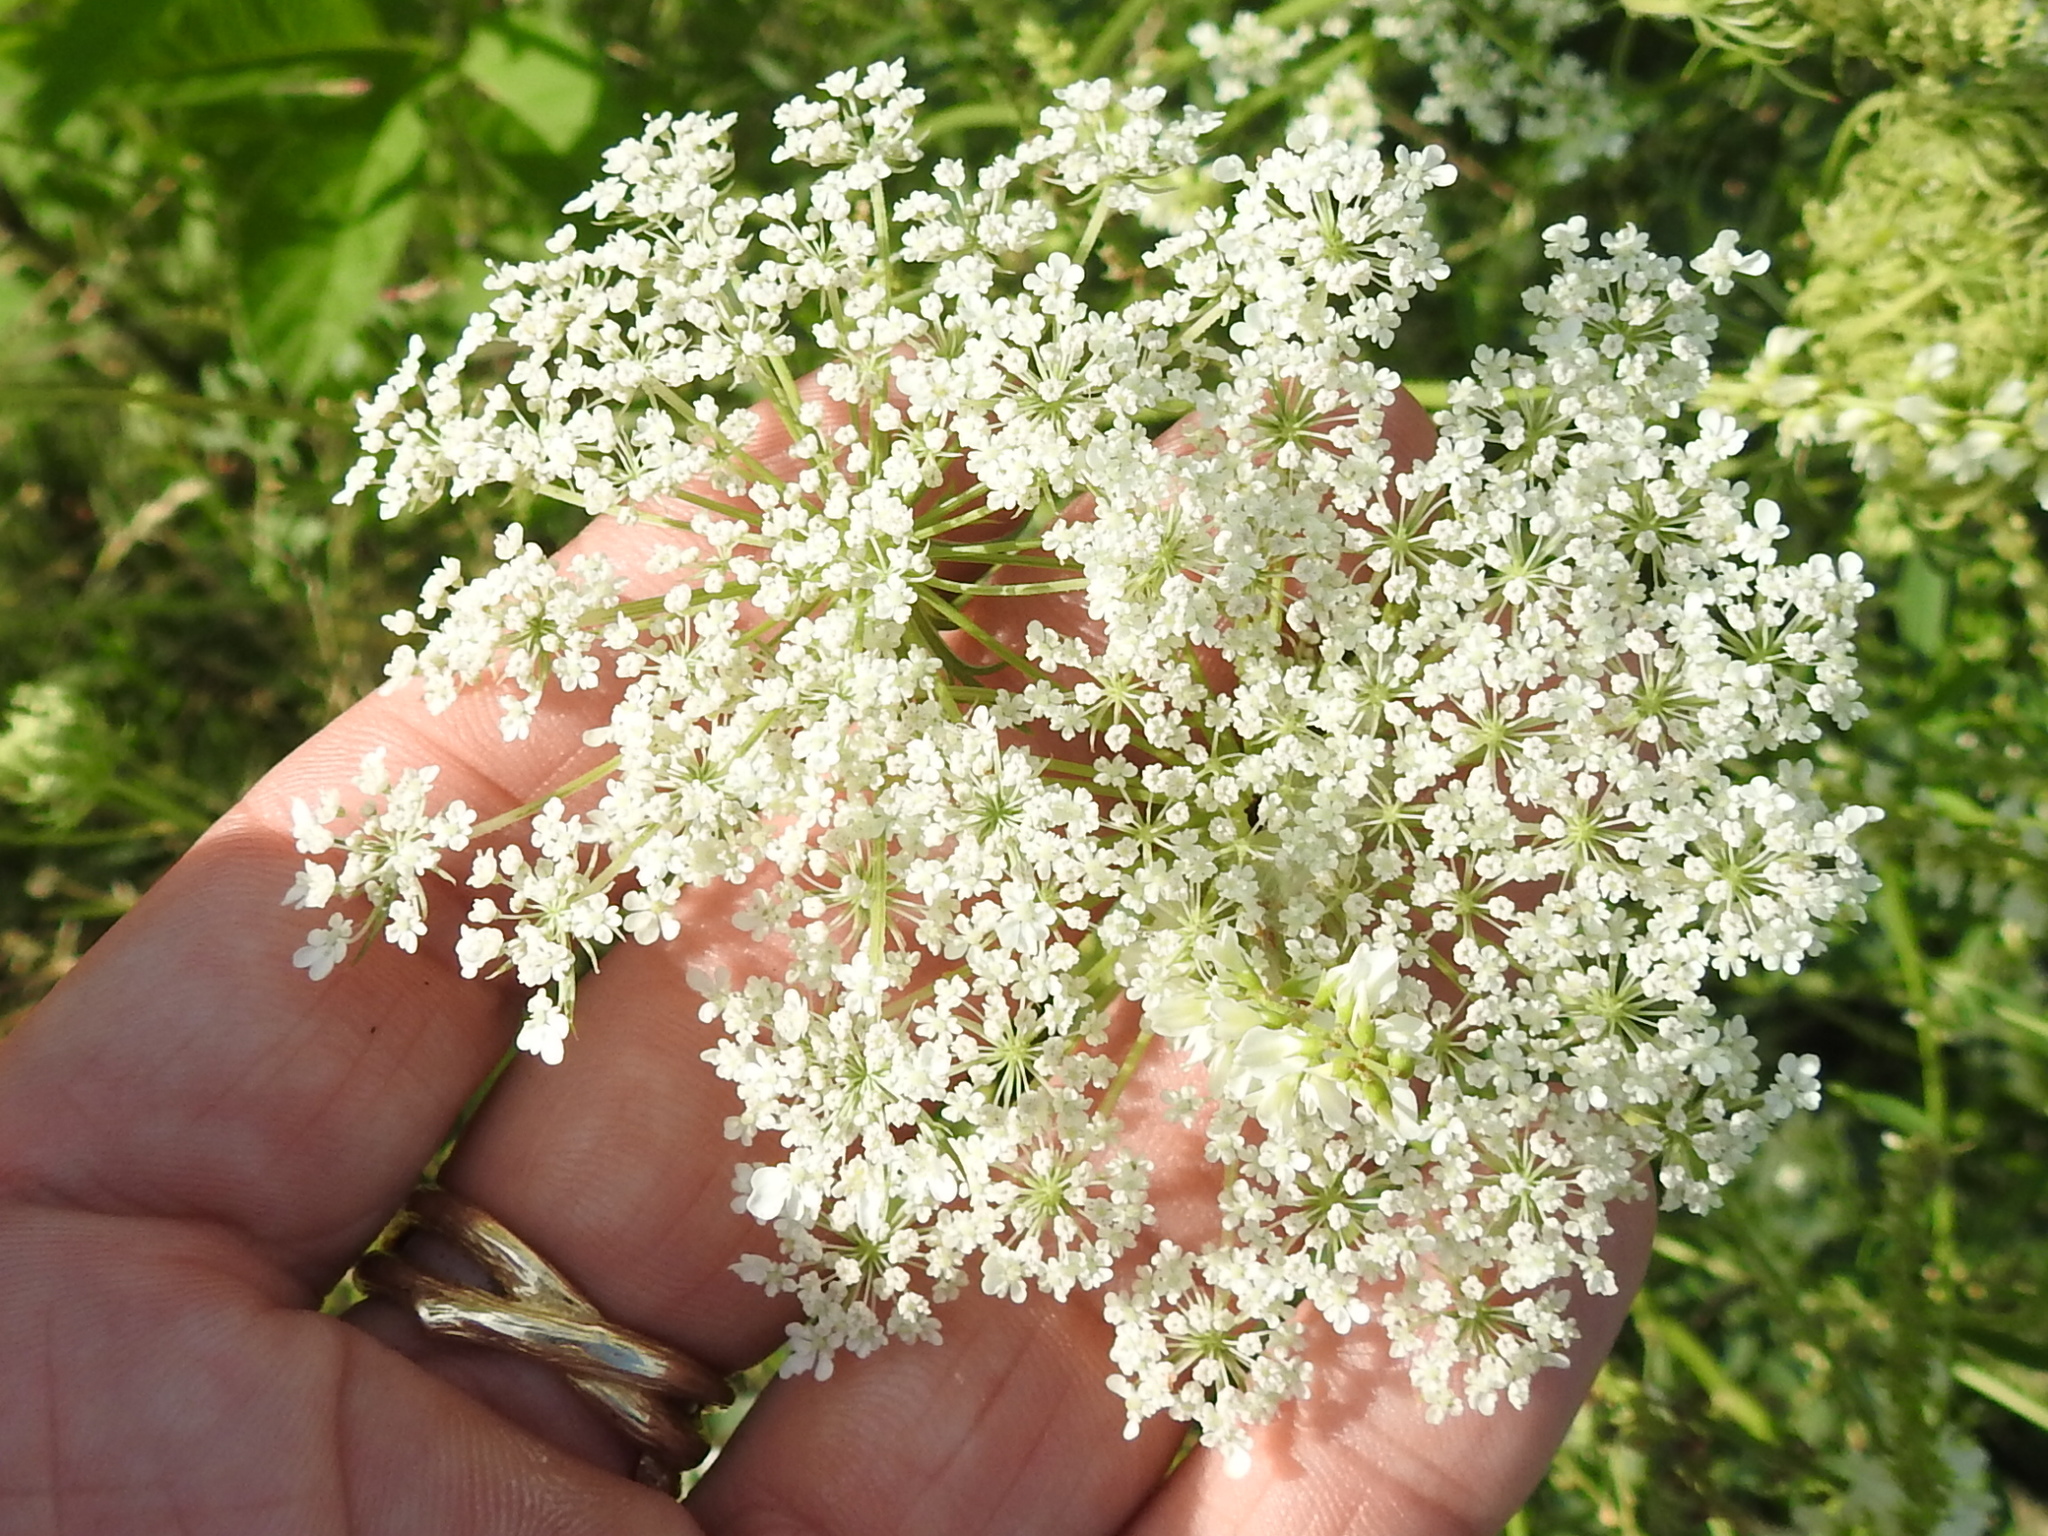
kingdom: Plantae
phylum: Tracheophyta
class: Magnoliopsida
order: Apiales
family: Apiaceae
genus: Daucus
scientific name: Daucus carota
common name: Wild carrot
